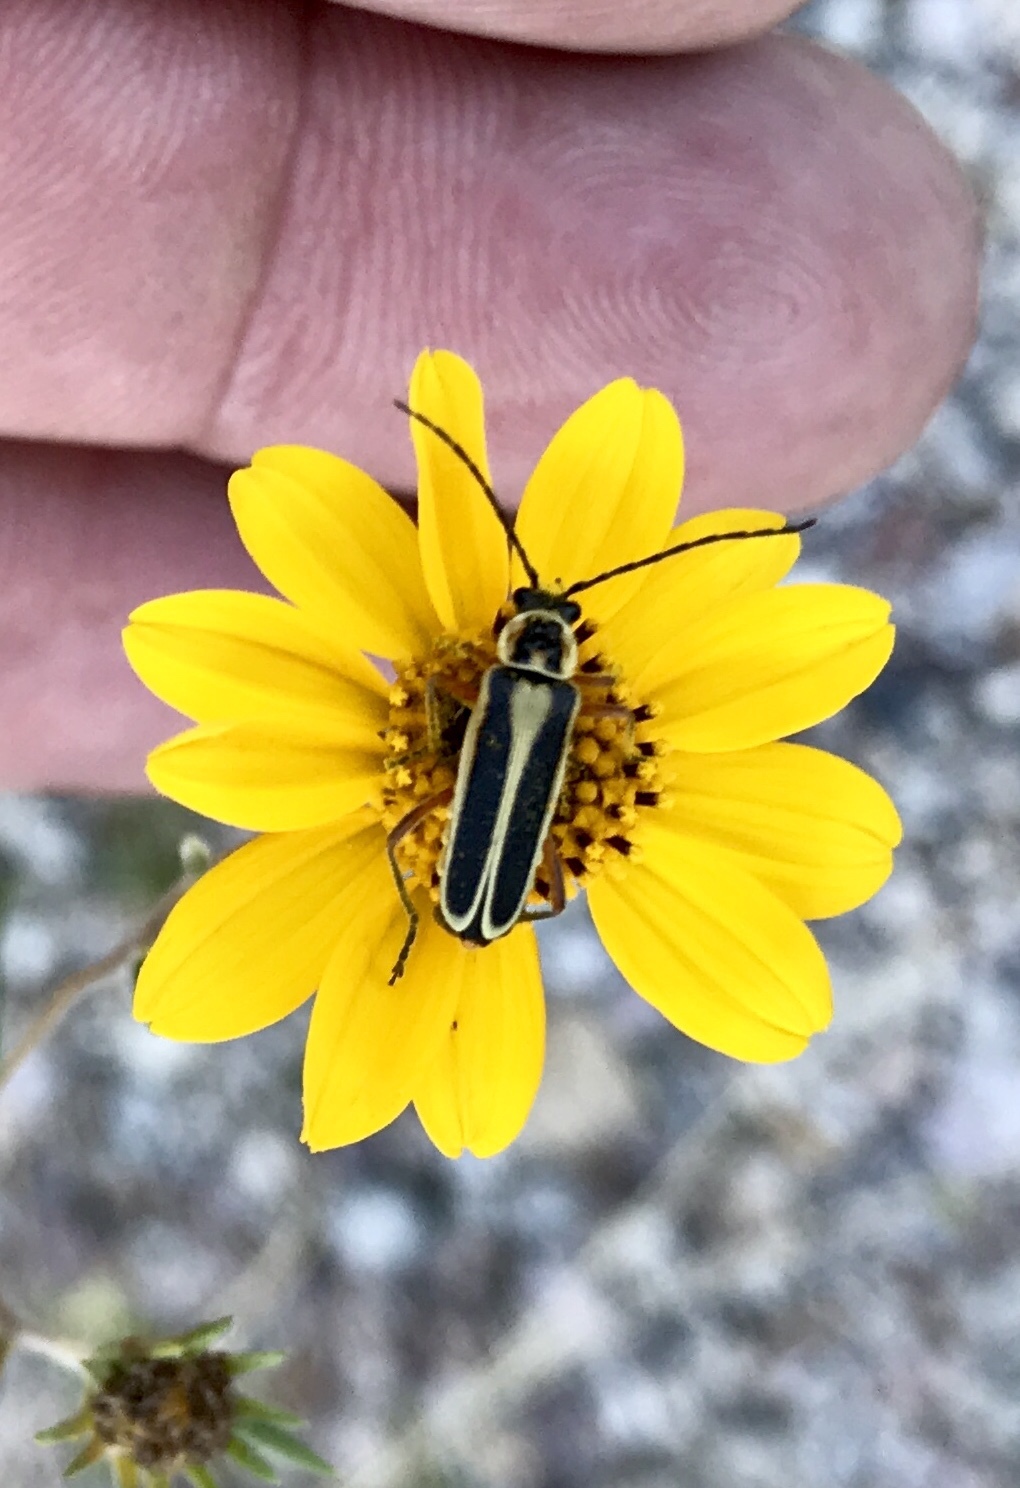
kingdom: Animalia
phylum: Arthropoda
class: Insecta
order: Coleoptera
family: Cantharidae
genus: Chauliognathus
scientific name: Chauliognathus lewisi
